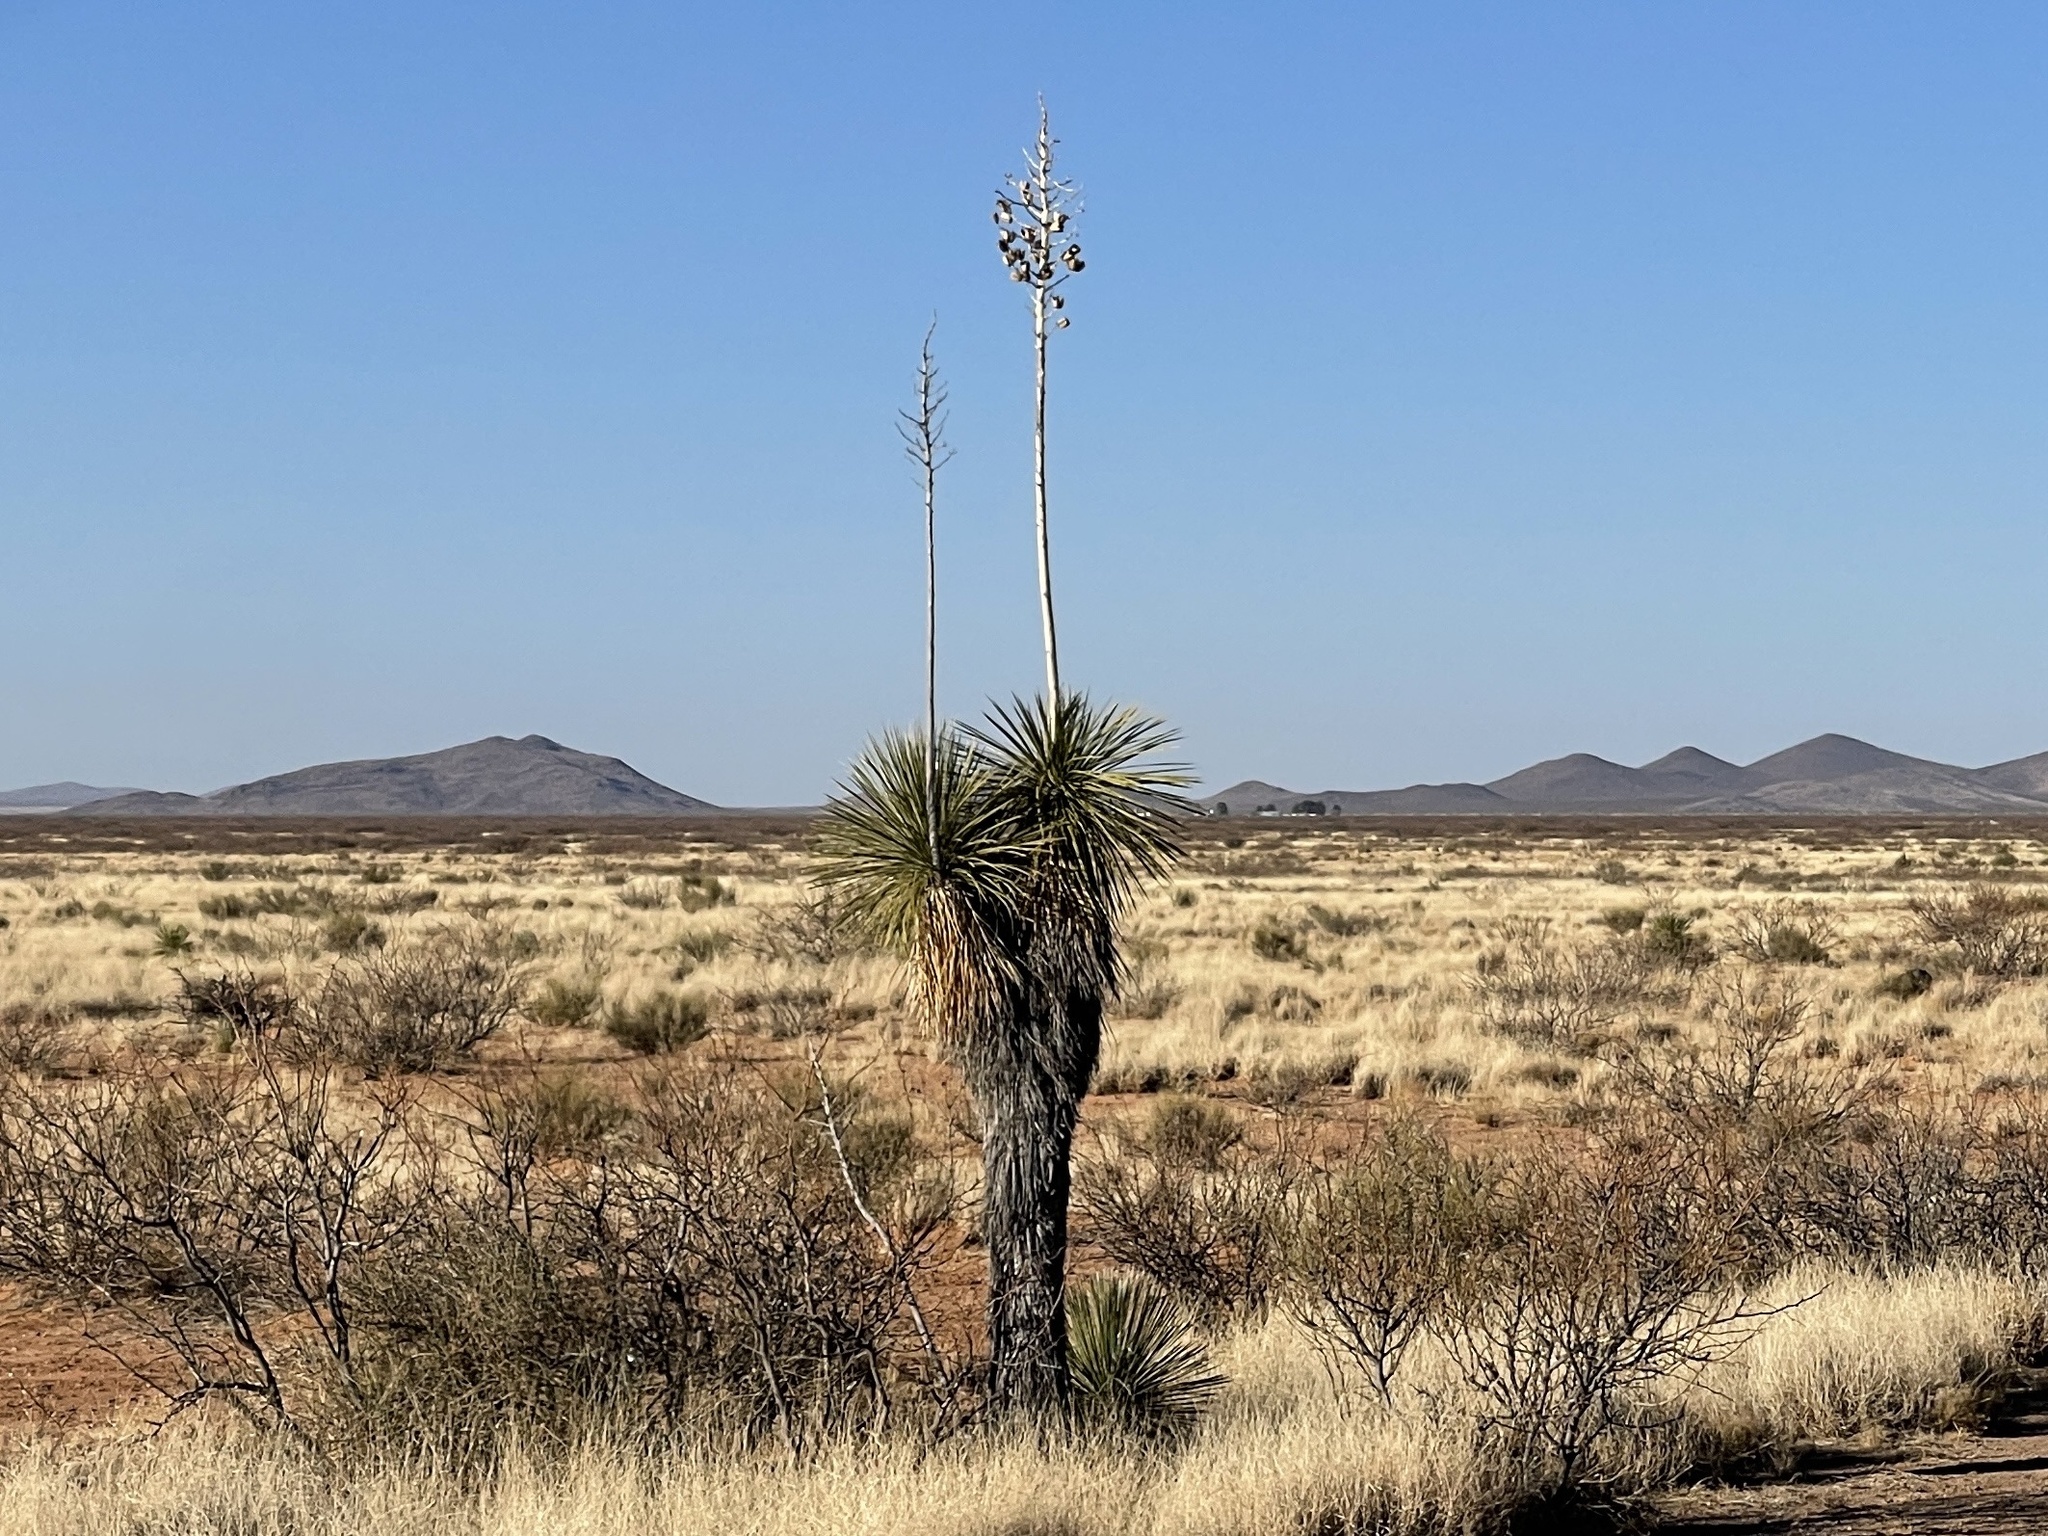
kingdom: Plantae
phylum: Tracheophyta
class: Liliopsida
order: Asparagales
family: Asparagaceae
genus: Yucca
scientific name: Yucca elata
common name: Palmella
